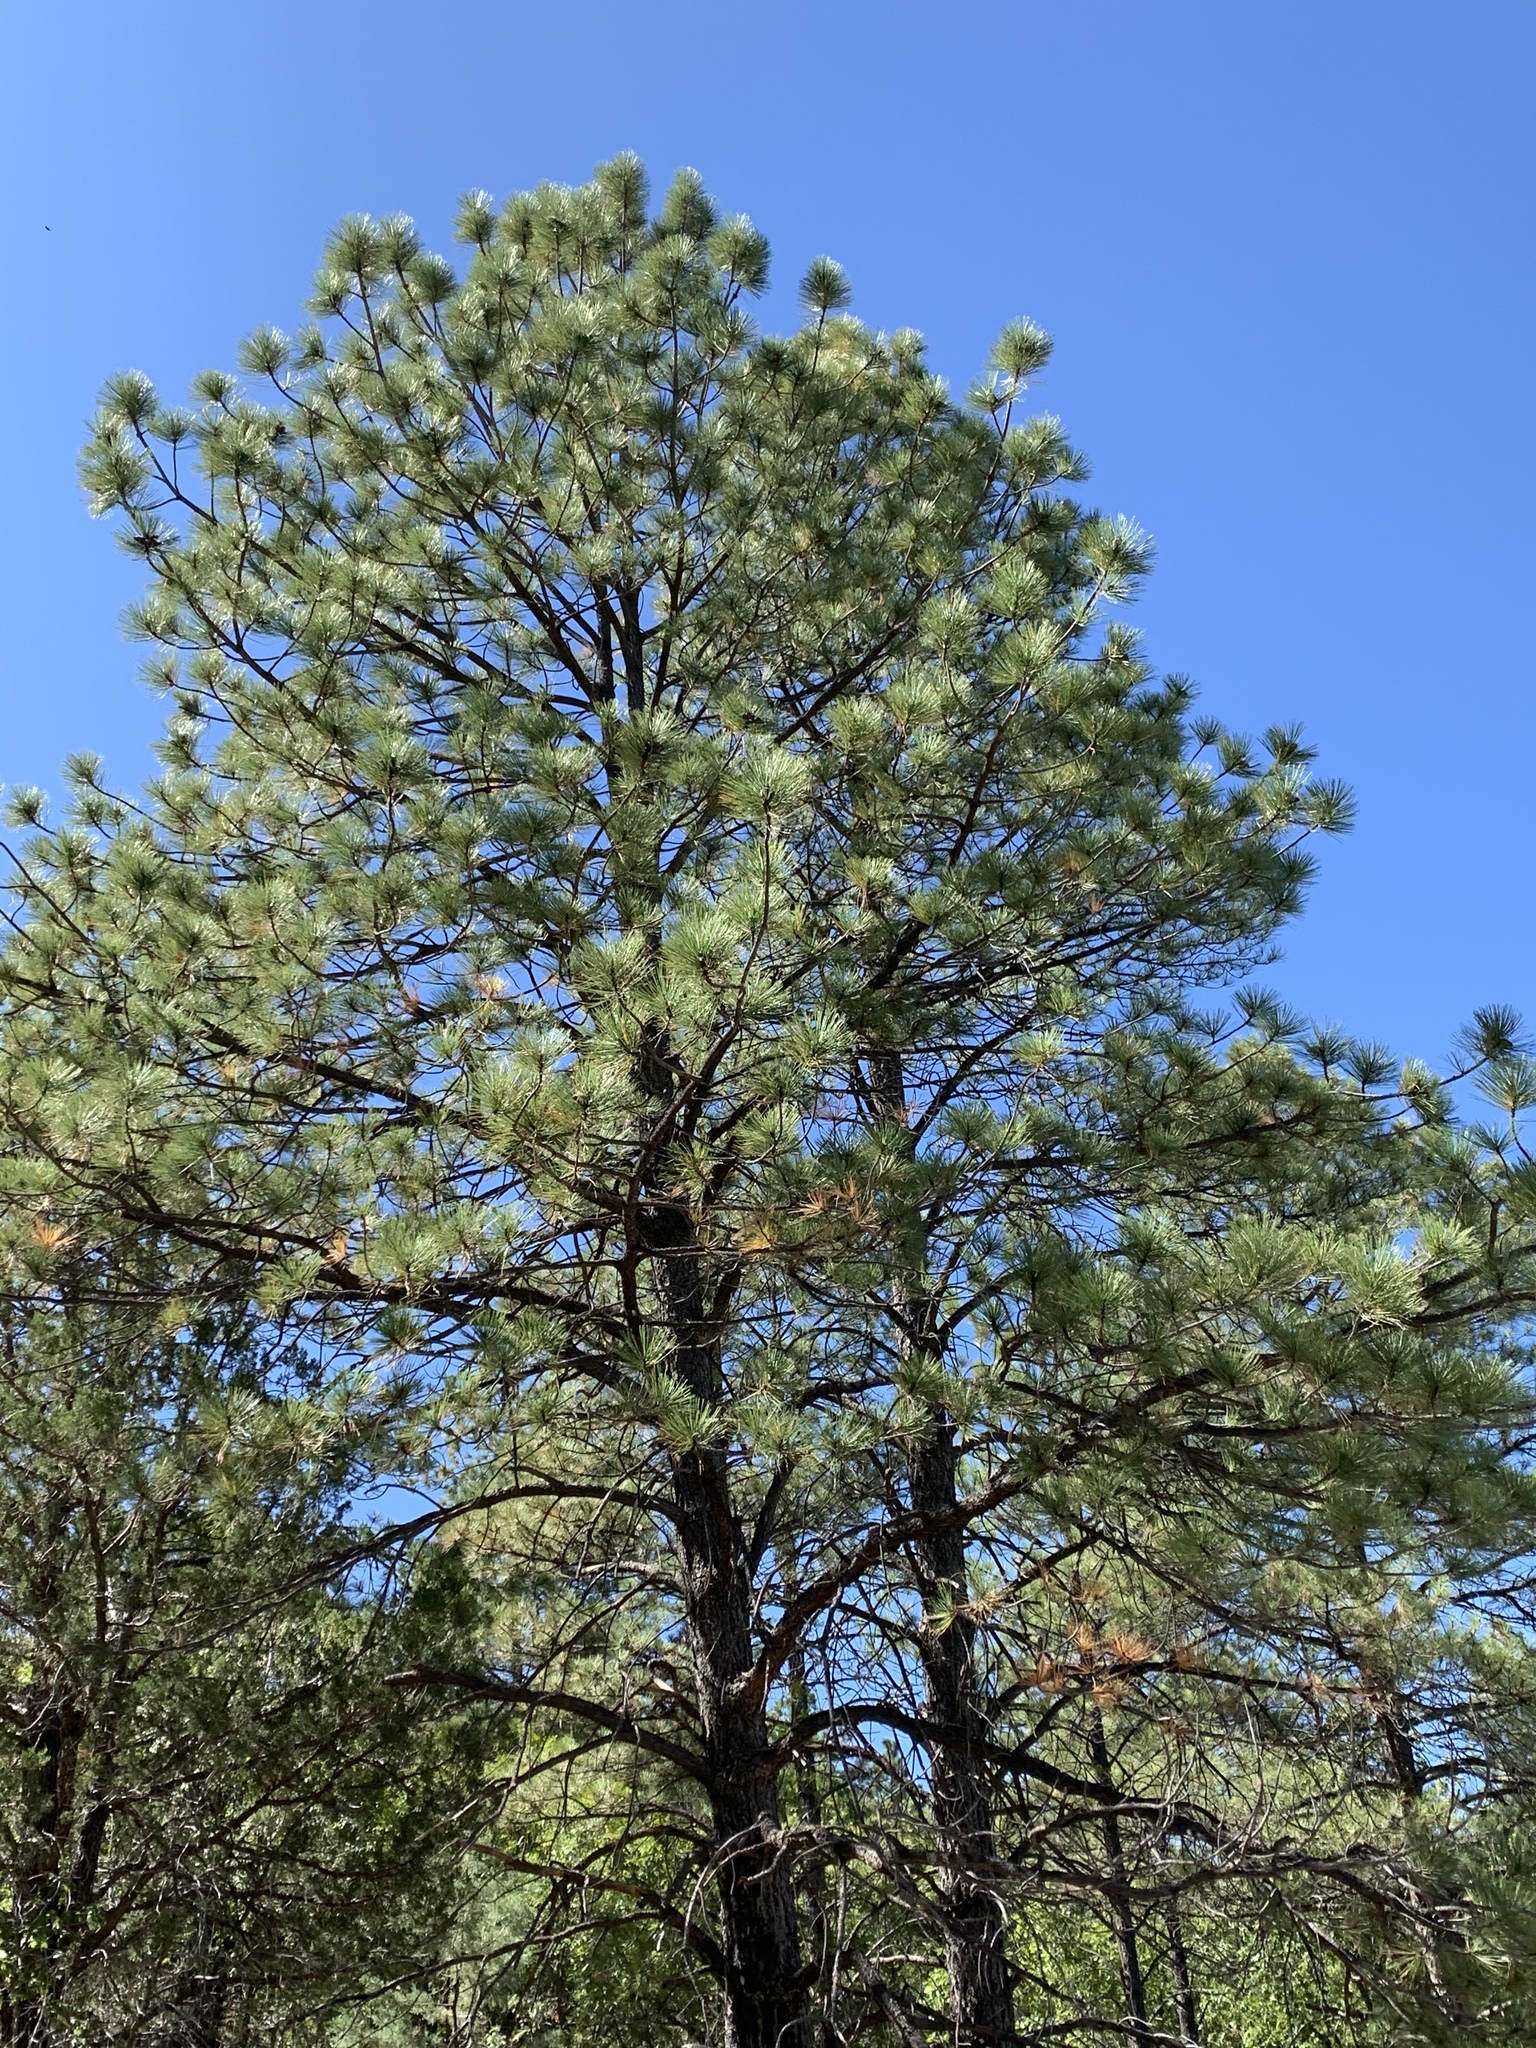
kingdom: Plantae
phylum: Tracheophyta
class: Pinopsida
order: Pinales
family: Pinaceae
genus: Pinus
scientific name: Pinus ponderosa
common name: Western yellow-pine
